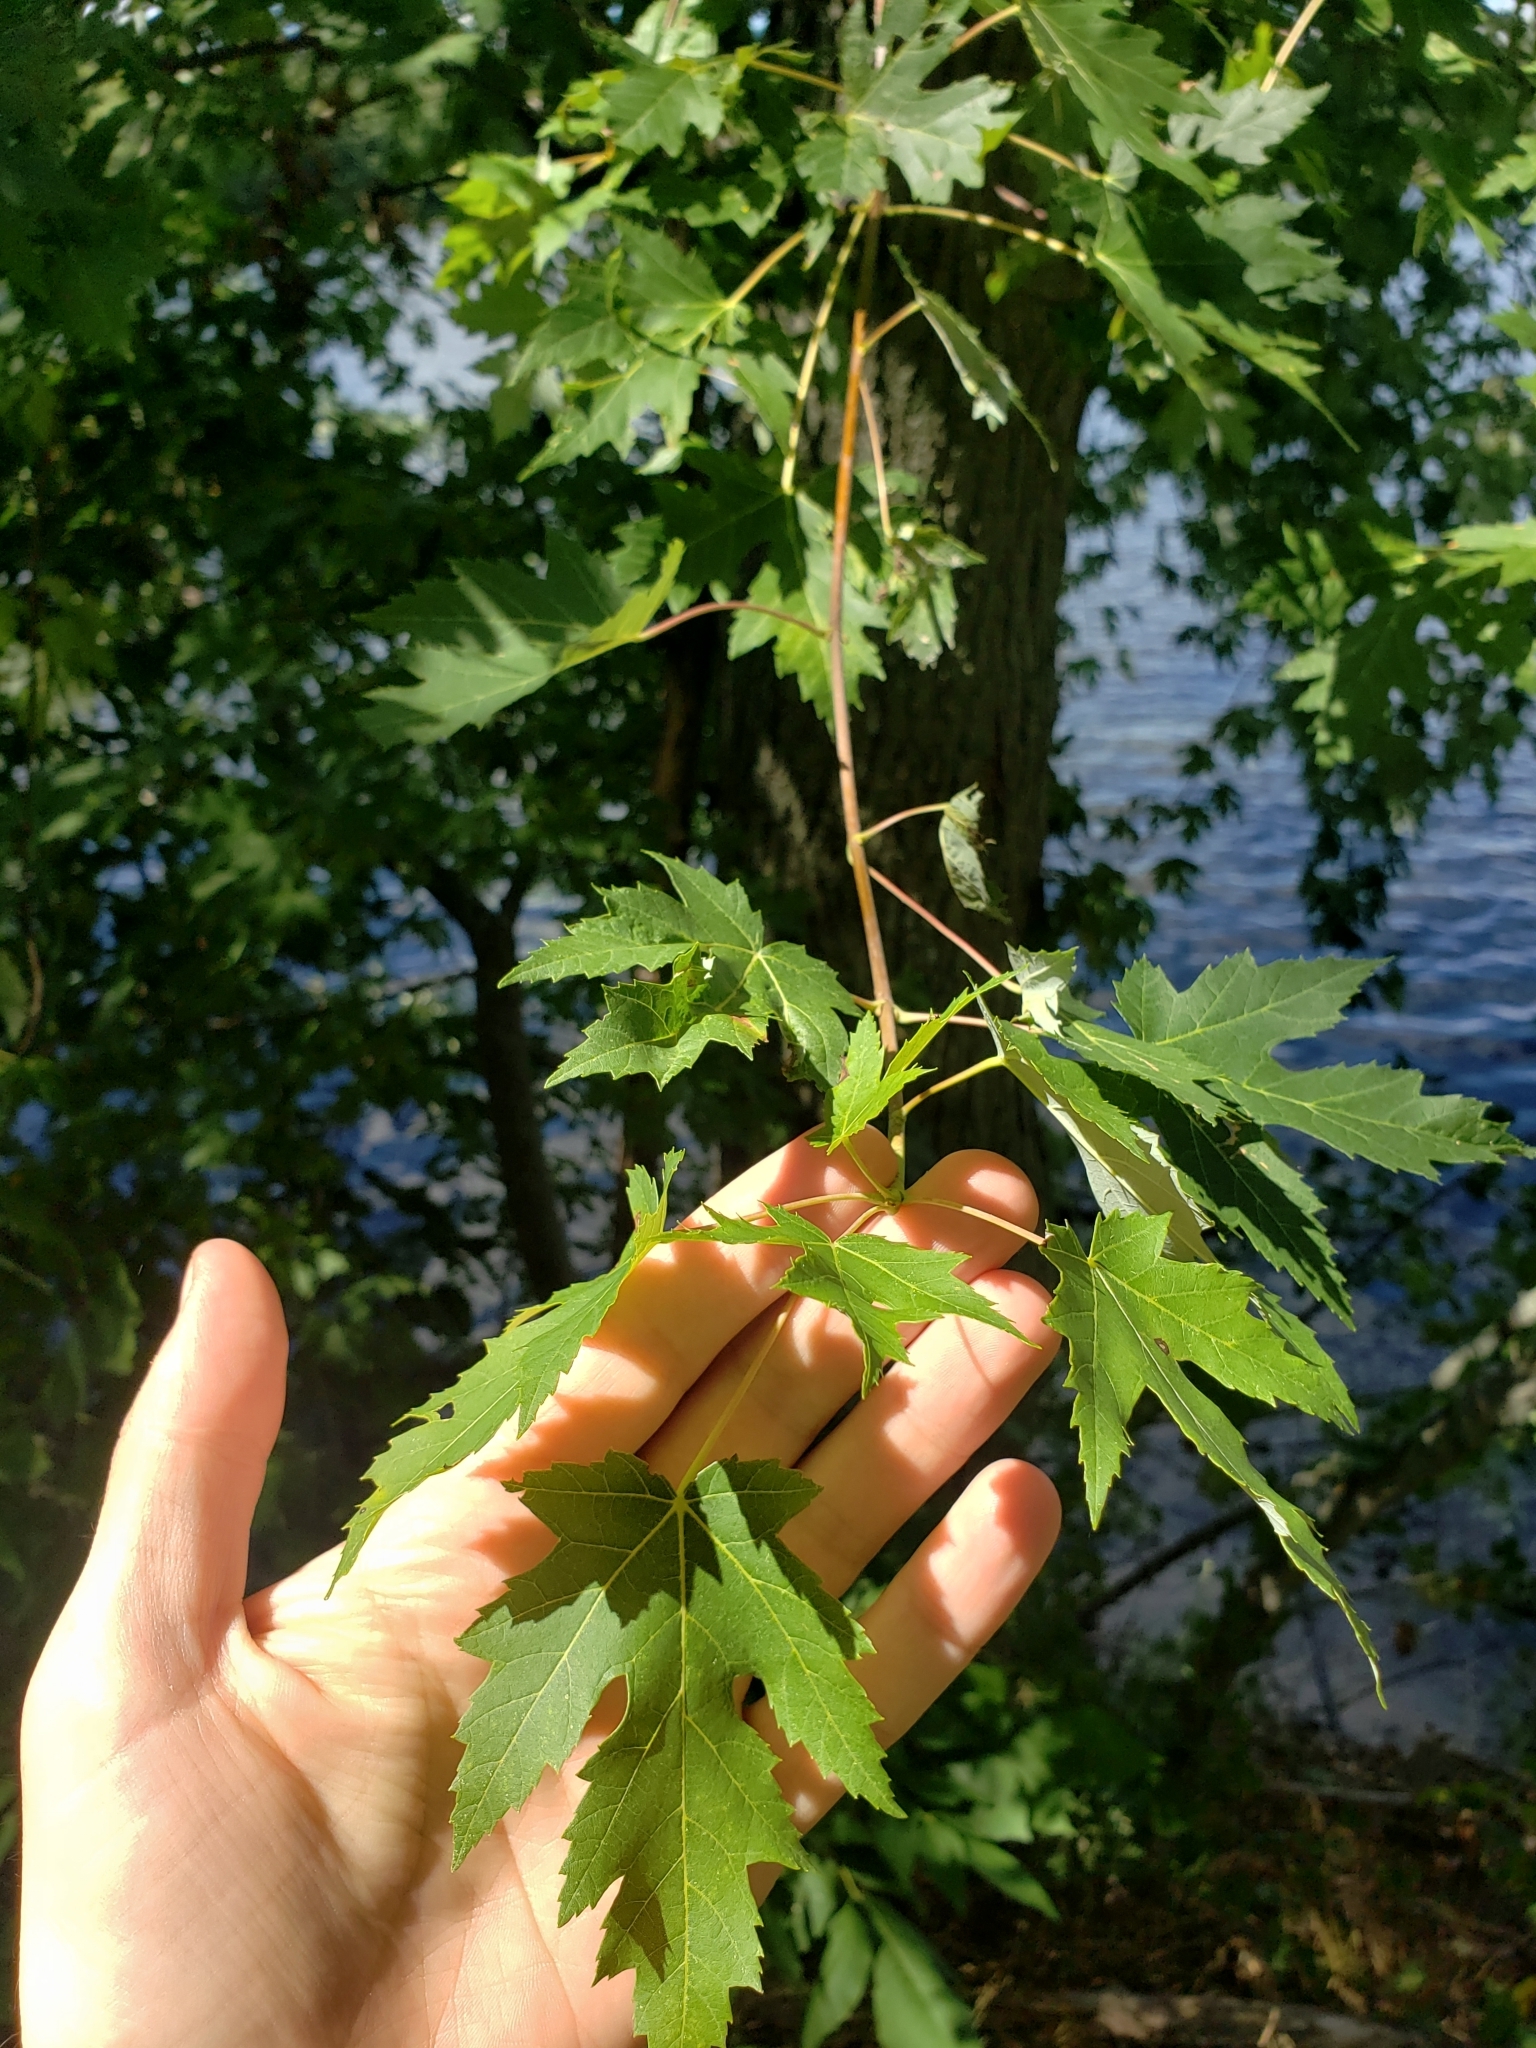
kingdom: Plantae
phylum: Tracheophyta
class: Magnoliopsida
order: Sapindales
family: Sapindaceae
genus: Acer
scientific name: Acer saccharinum
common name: Silver maple
